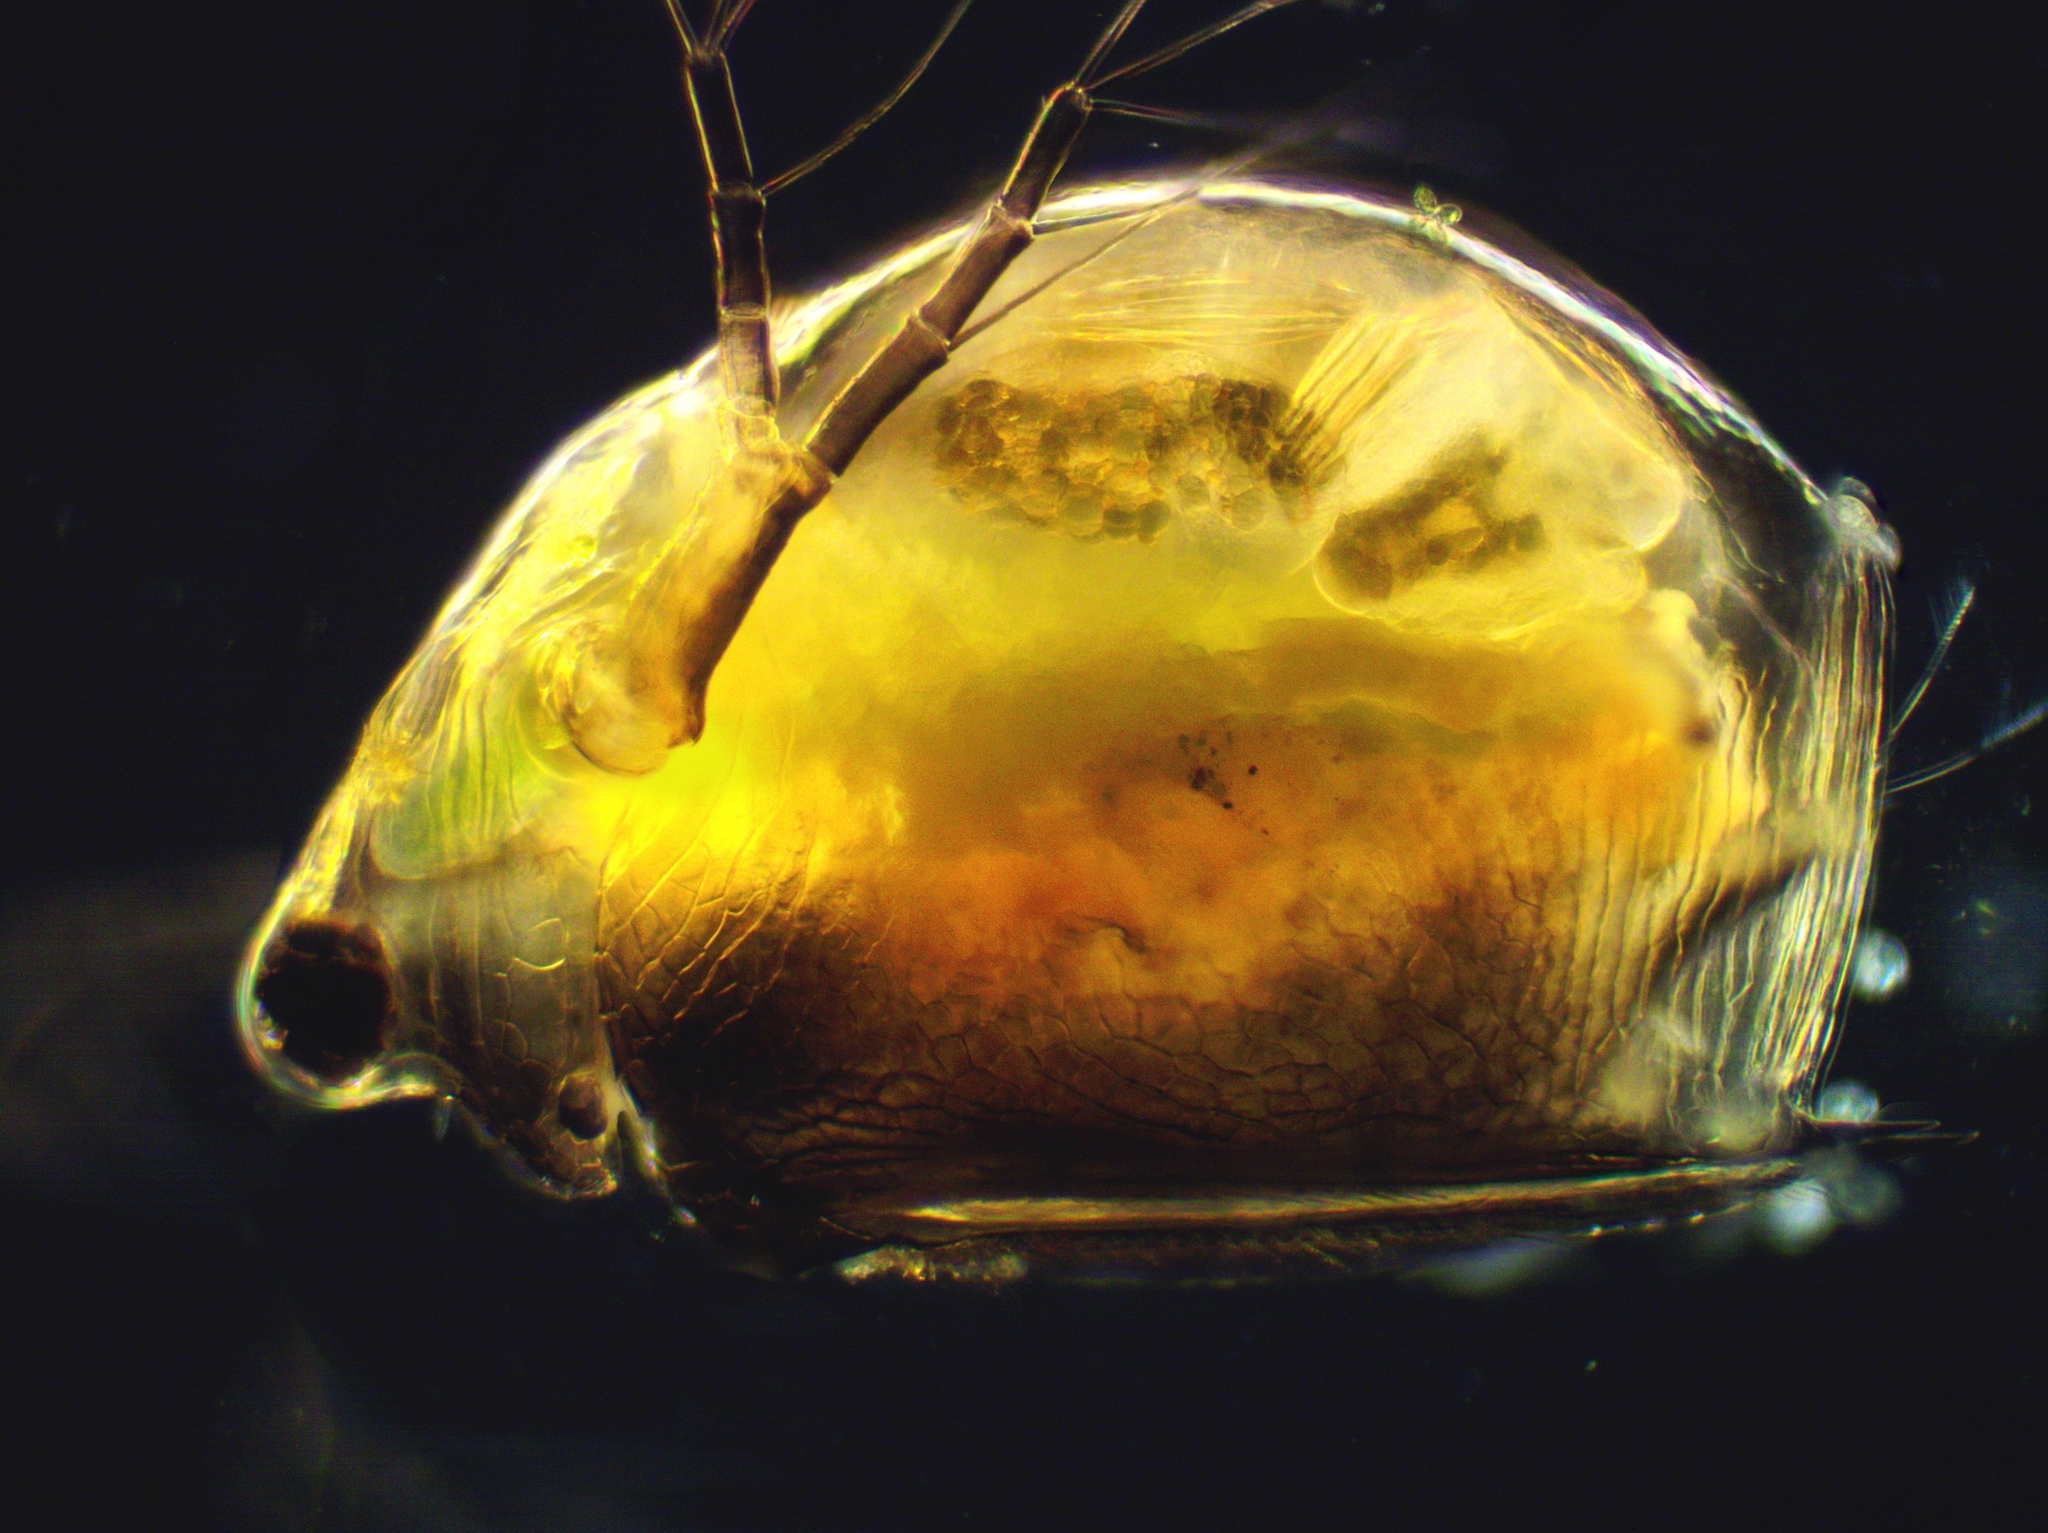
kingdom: Animalia
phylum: Arthropoda
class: Branchiopoda
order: Diplostraca
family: Daphniidae
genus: Scapholeberis
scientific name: Scapholeberis rammneri
